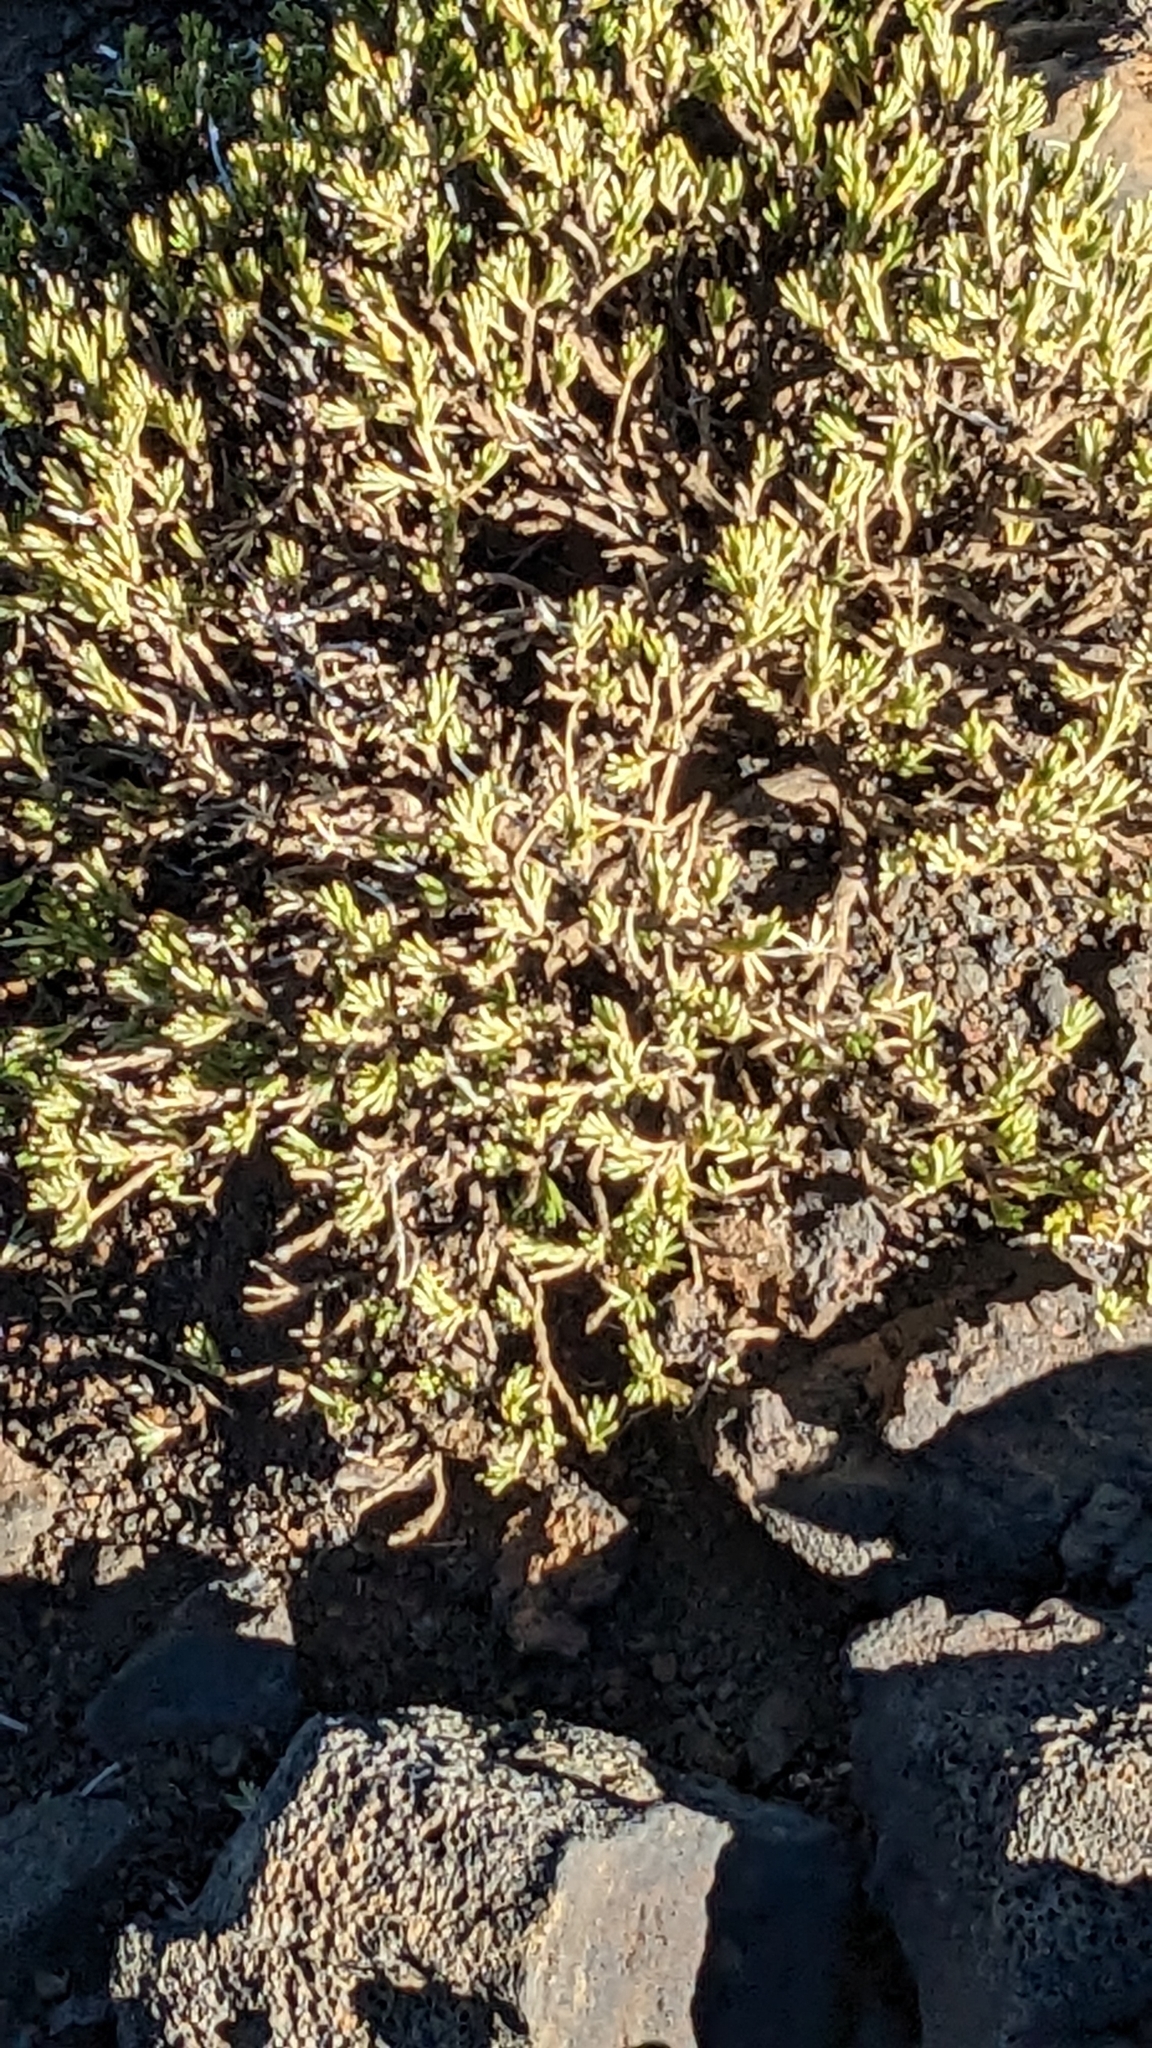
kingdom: Plantae
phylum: Tracheophyta
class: Magnoliopsida
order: Caryophyllales
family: Caryophyllaceae
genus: Silene
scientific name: Silene struthioloides
